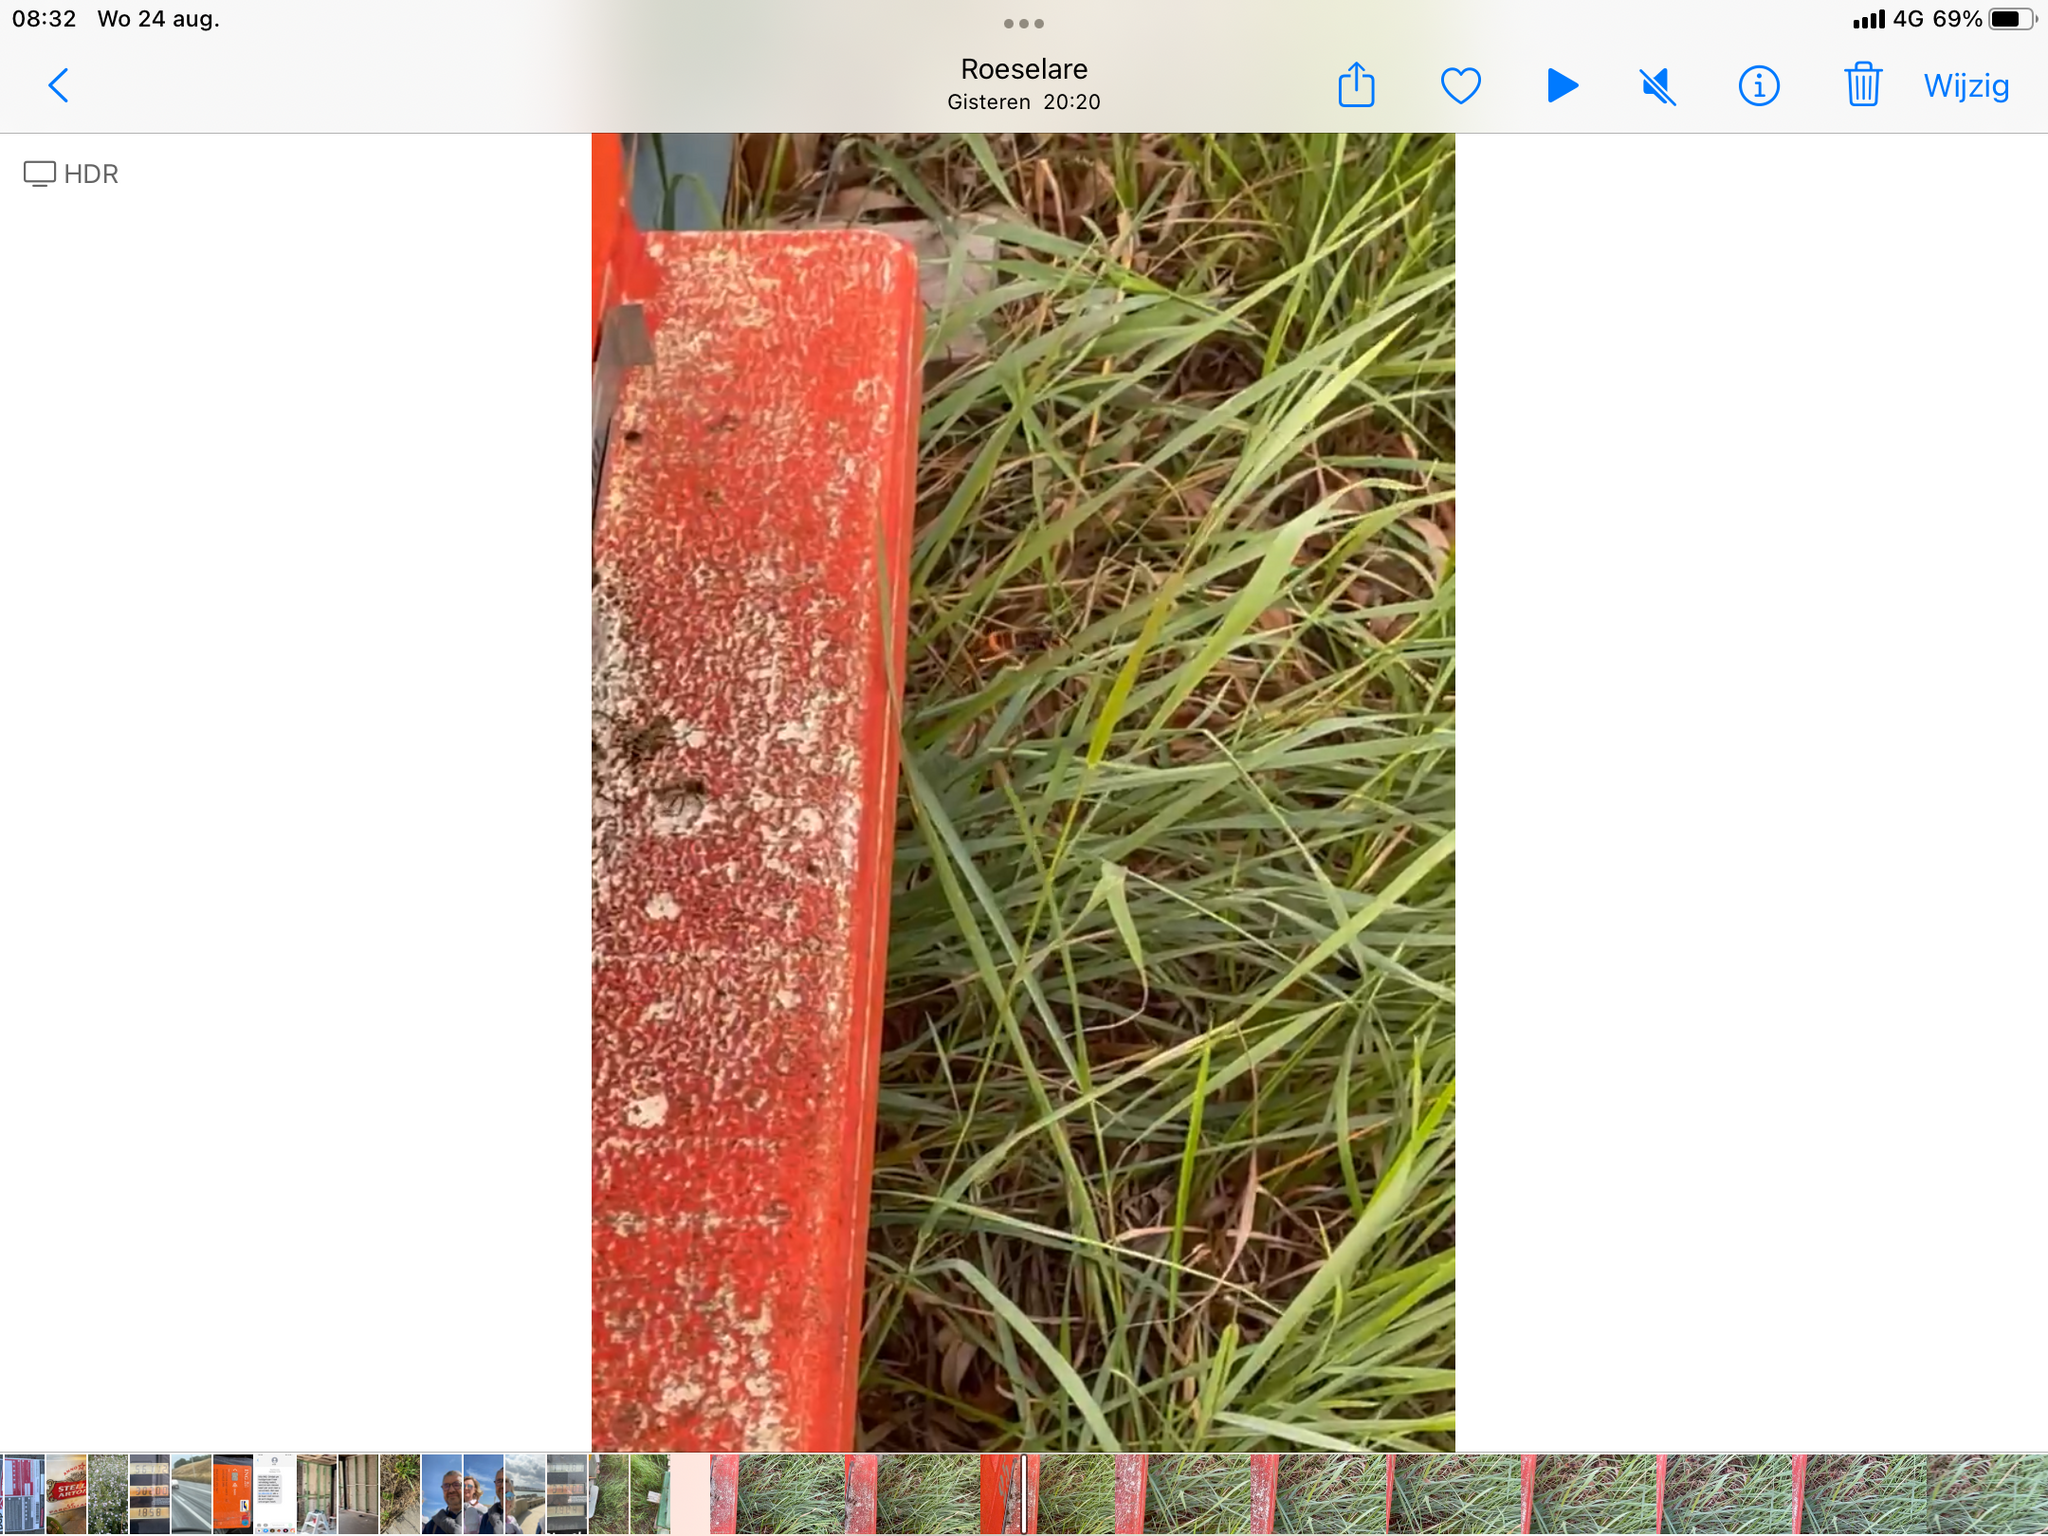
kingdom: Animalia
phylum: Arthropoda
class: Insecta
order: Hymenoptera
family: Vespidae
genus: Vespa
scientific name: Vespa velutina
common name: Asian hornet
